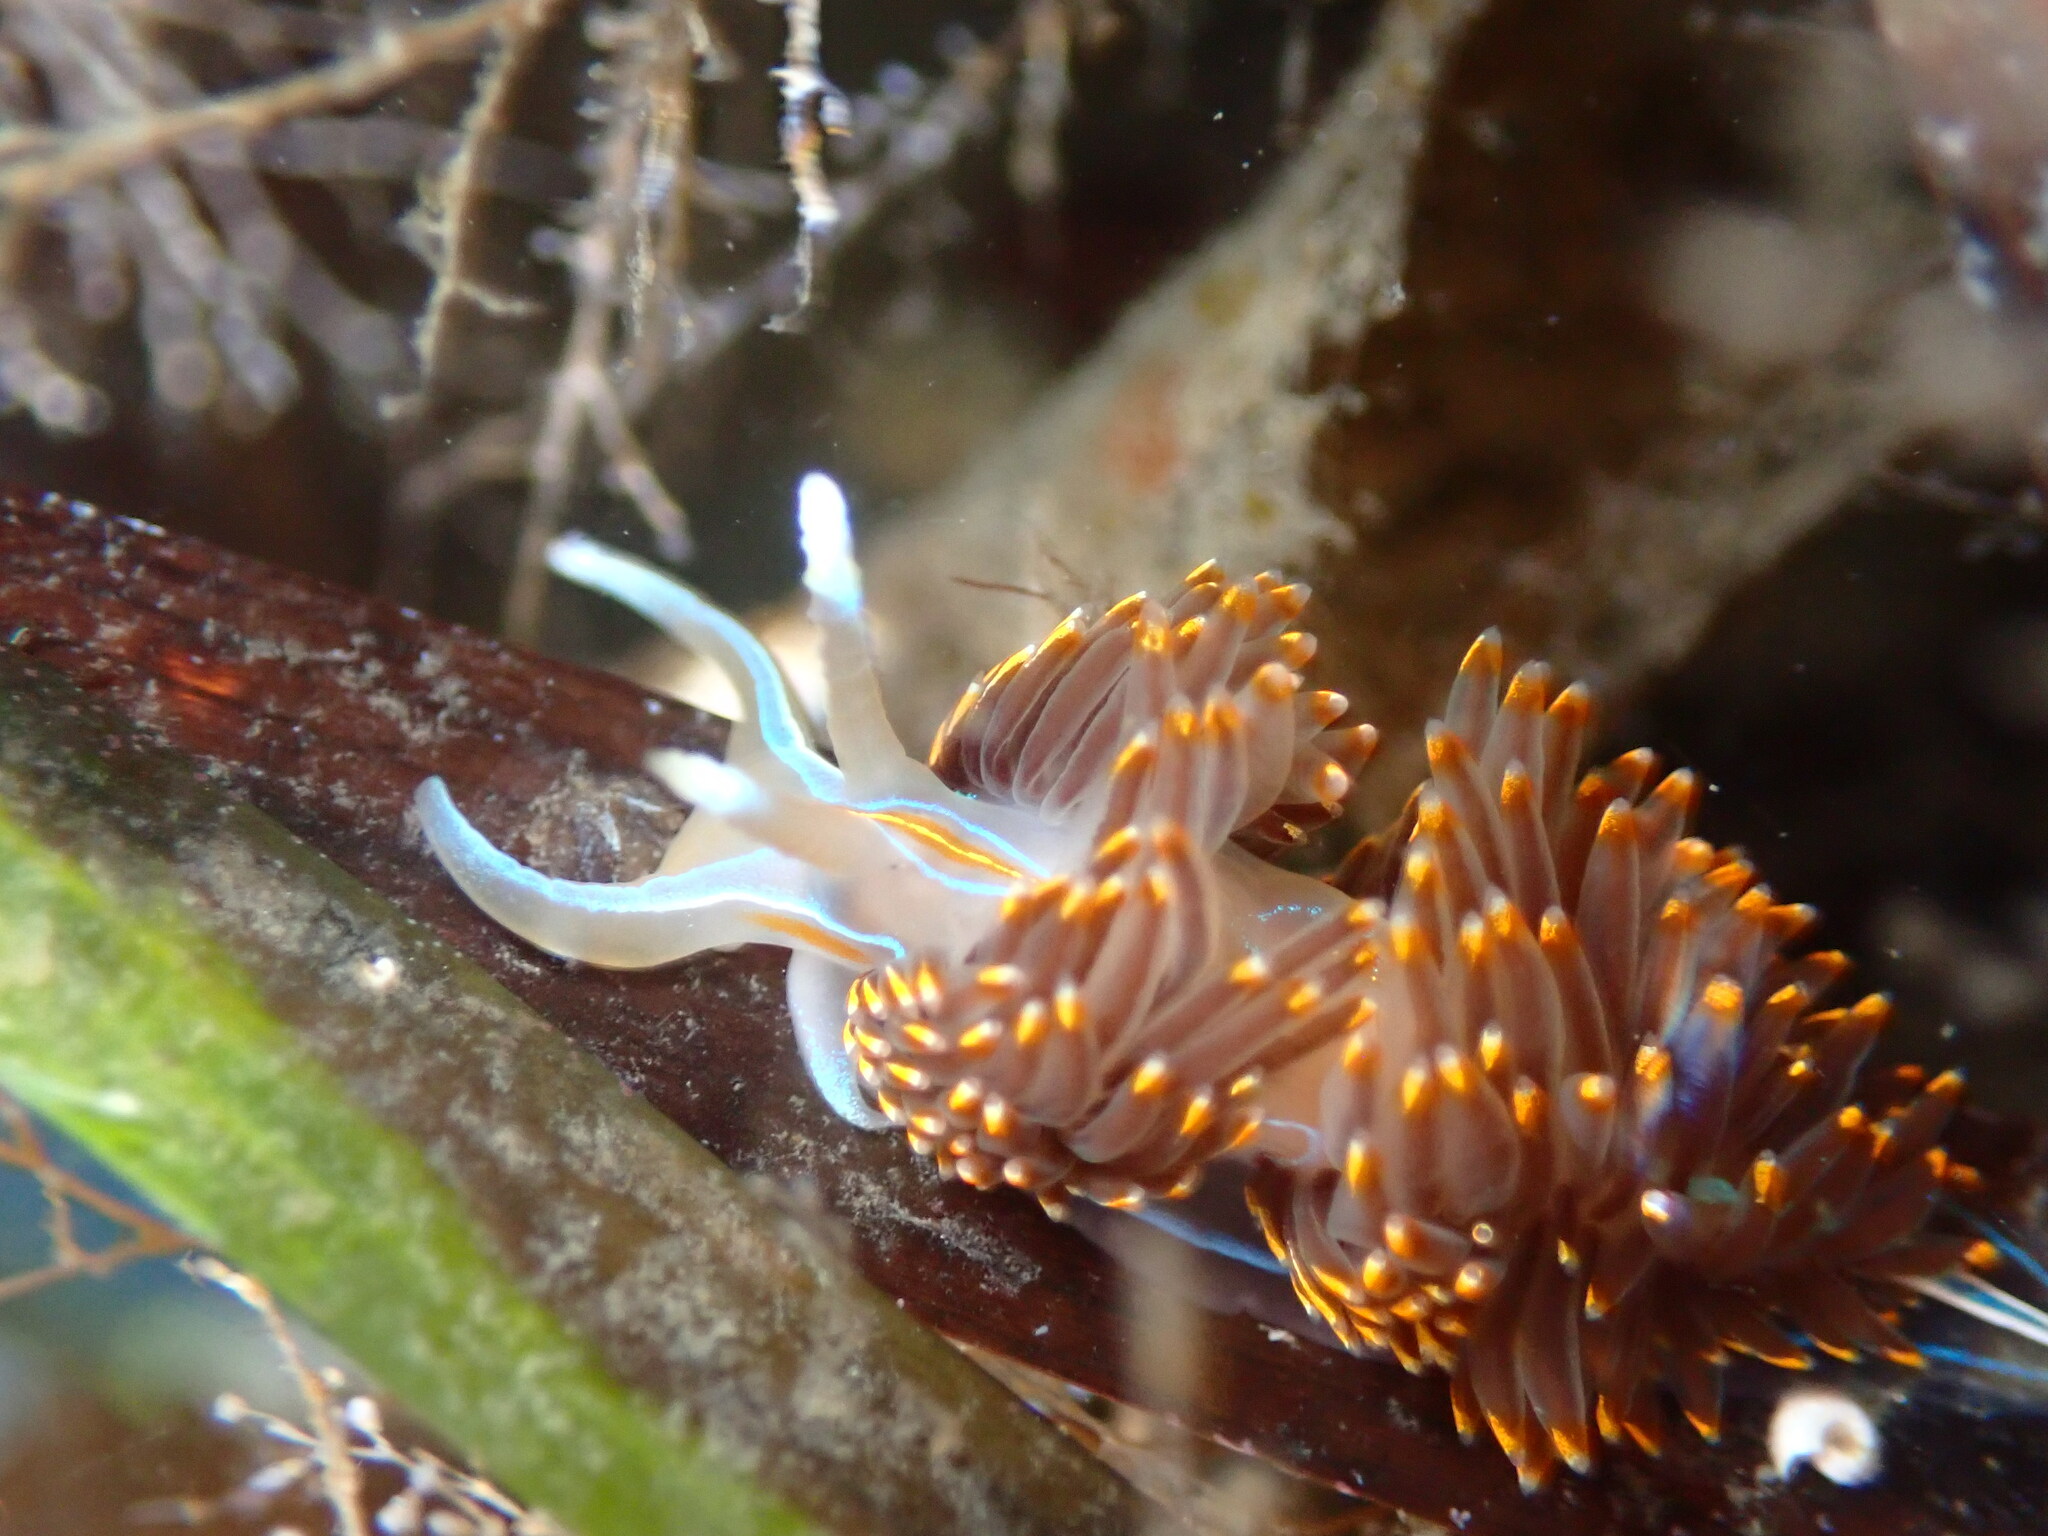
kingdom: Animalia
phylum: Mollusca
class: Gastropoda
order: Nudibranchia
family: Myrrhinidae
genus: Hermissenda
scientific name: Hermissenda opalescens
